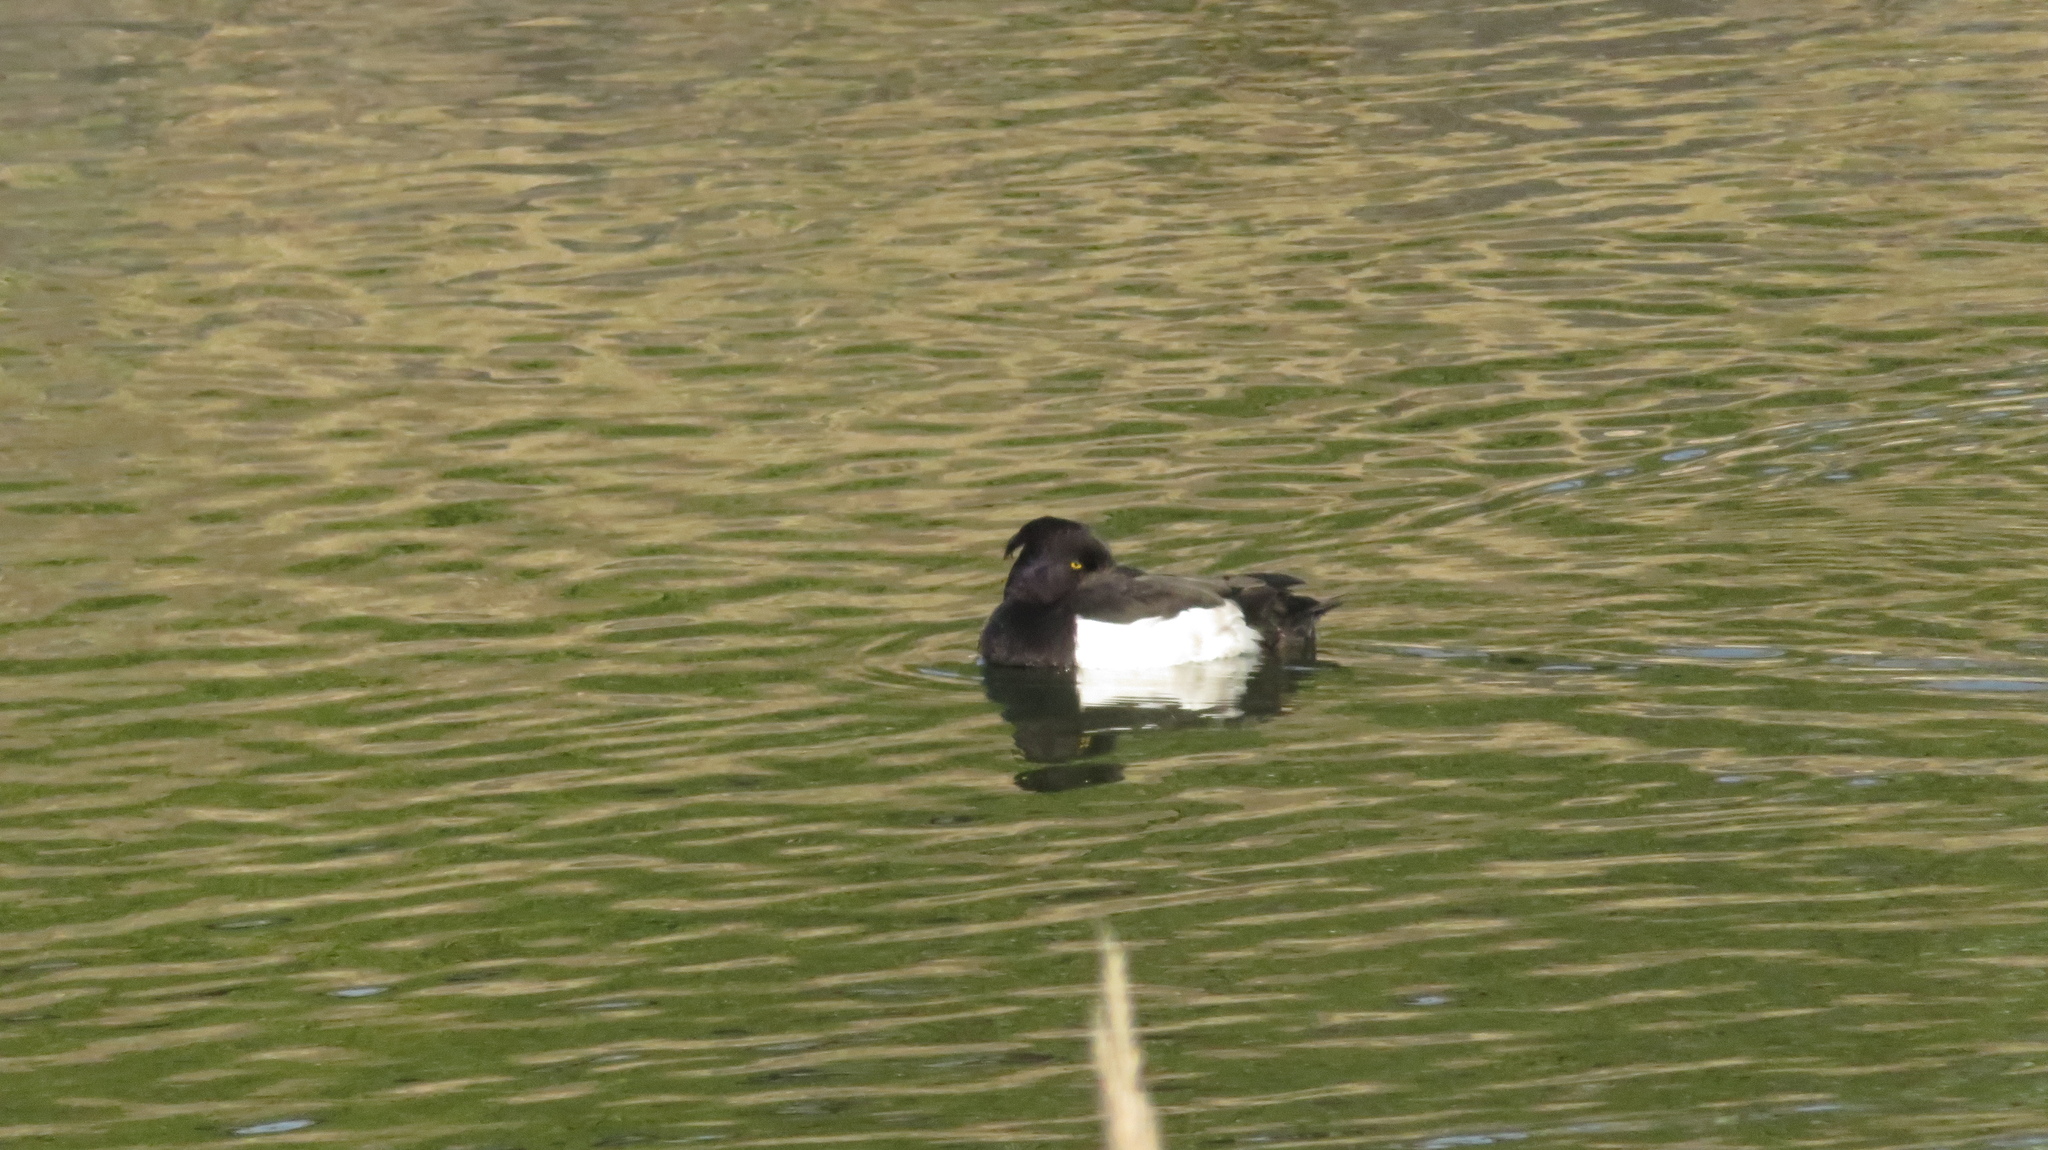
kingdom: Animalia
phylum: Chordata
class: Aves
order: Anseriformes
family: Anatidae
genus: Aythya
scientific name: Aythya fuligula
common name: Tufted duck
